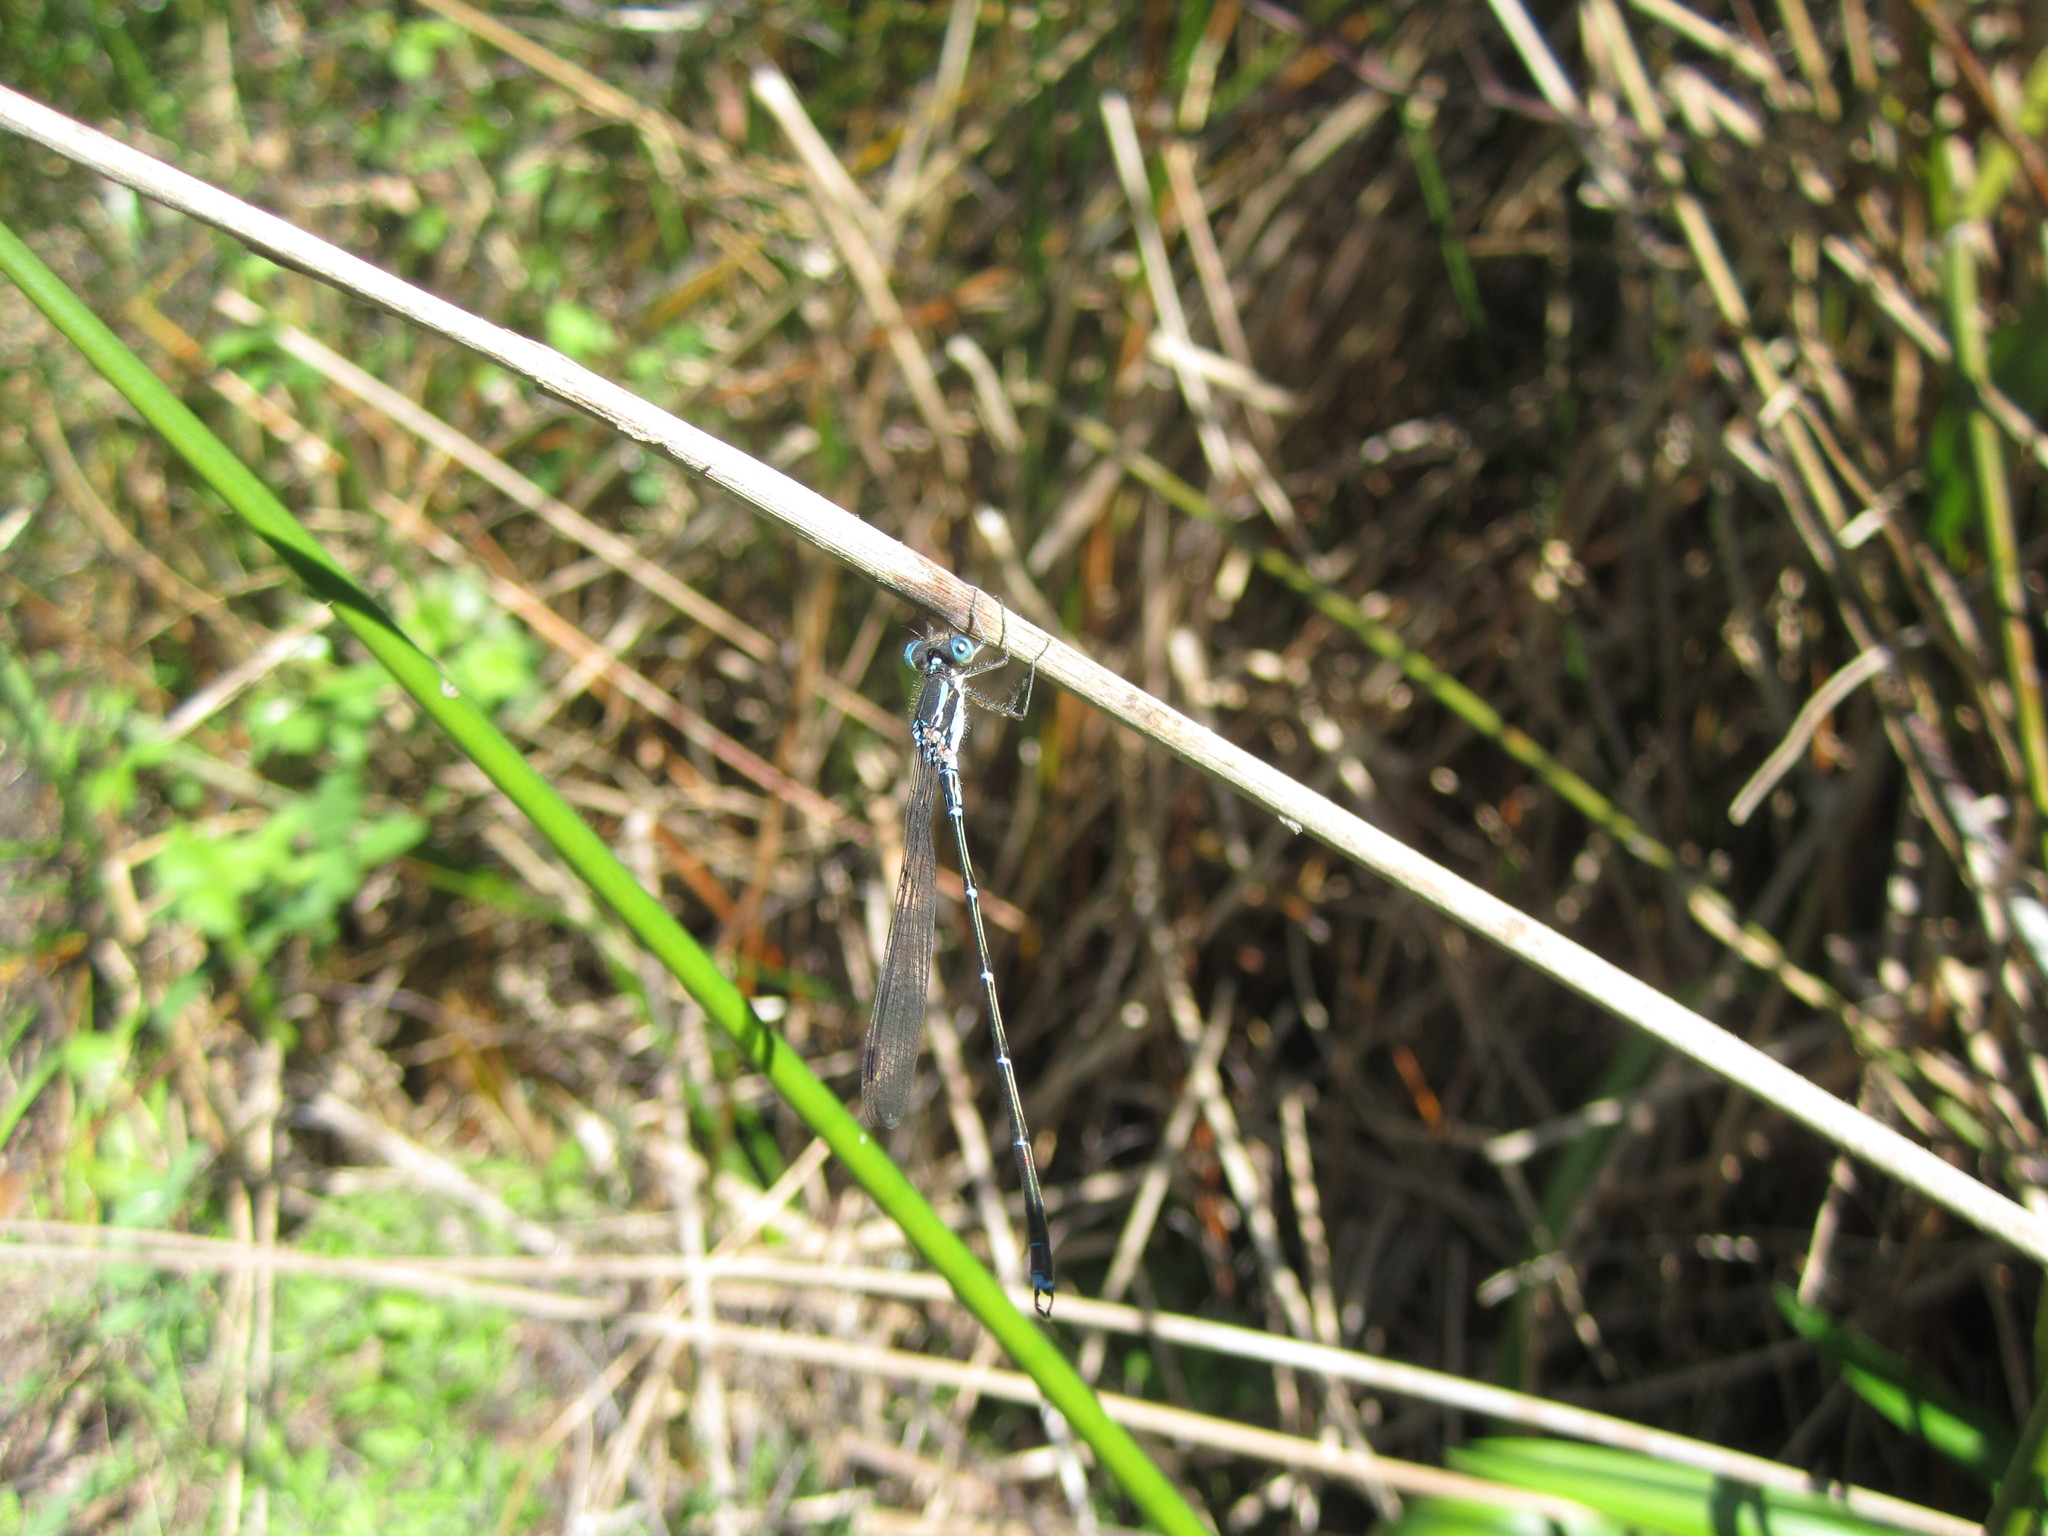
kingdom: Animalia
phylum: Arthropoda
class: Insecta
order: Odonata
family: Lestidae
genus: Austrolestes
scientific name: Austrolestes colensonis
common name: Blue damselfly
